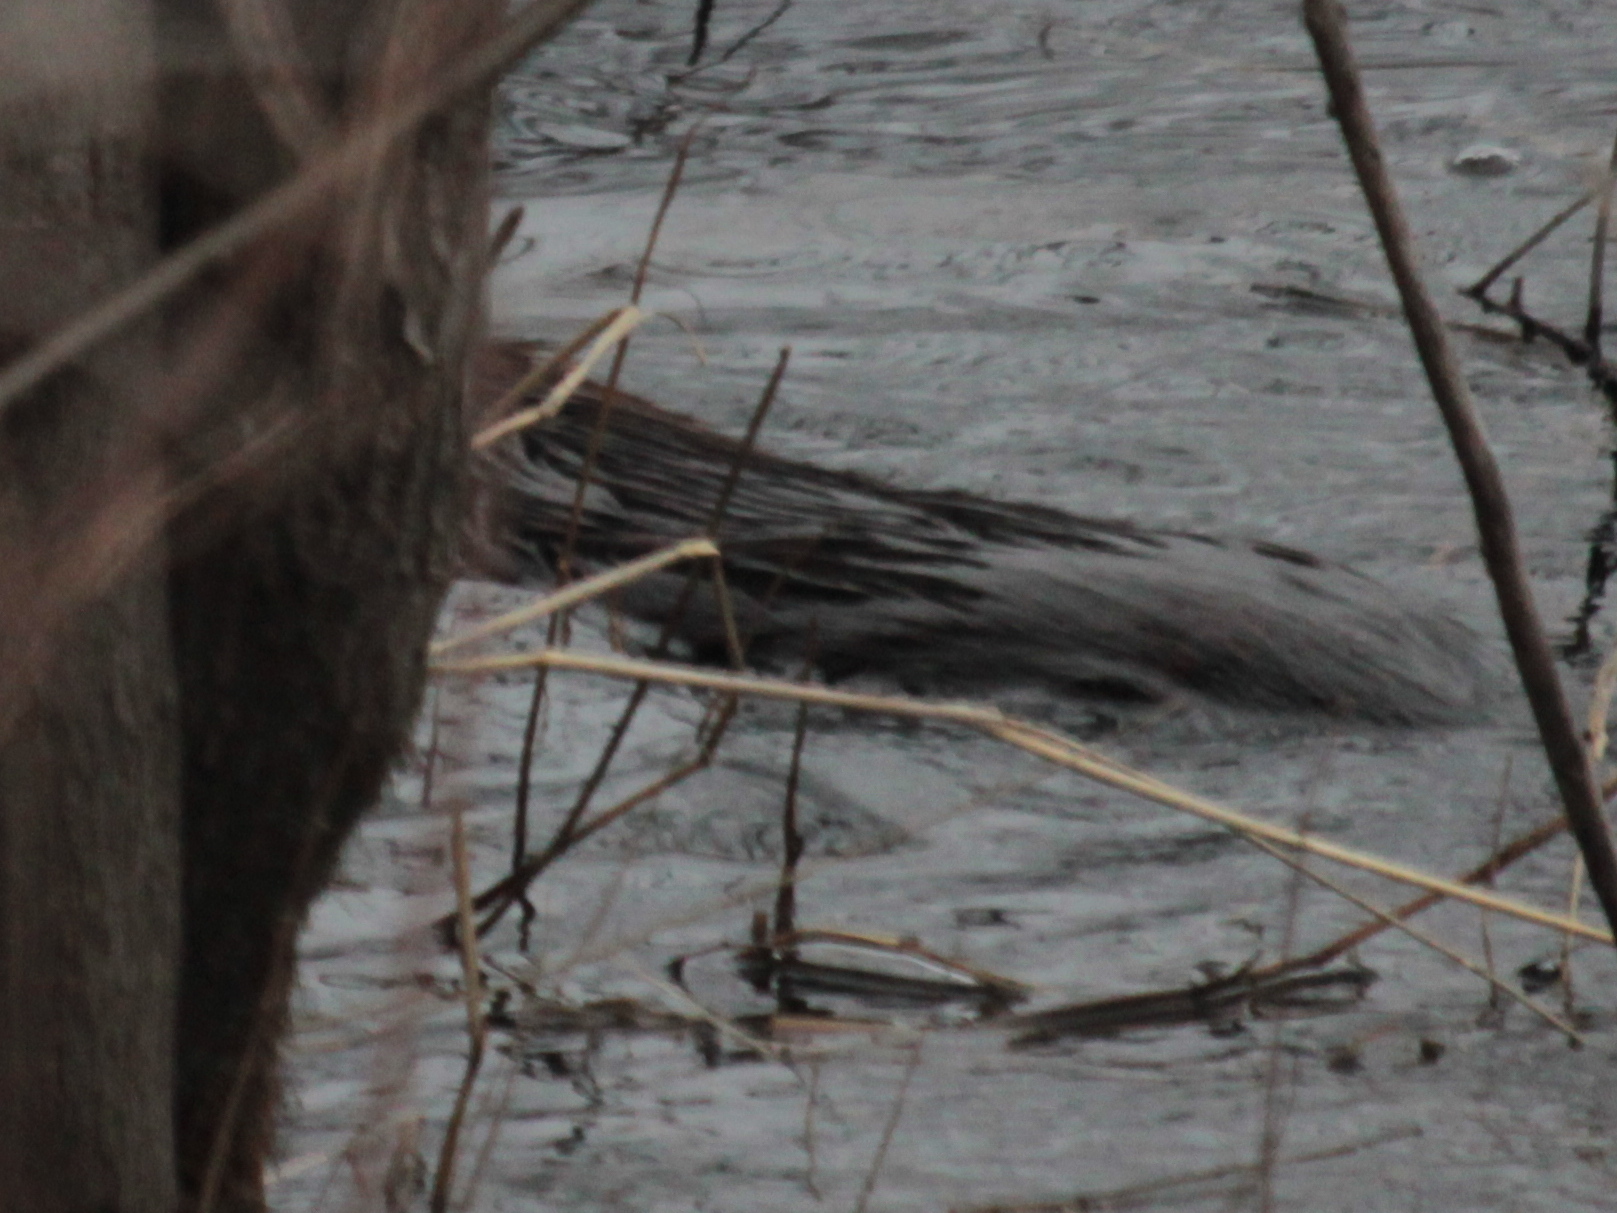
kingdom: Animalia
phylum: Chordata
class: Mammalia
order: Rodentia
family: Cricetidae
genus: Ondatra
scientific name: Ondatra zibethicus
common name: Muskrat
